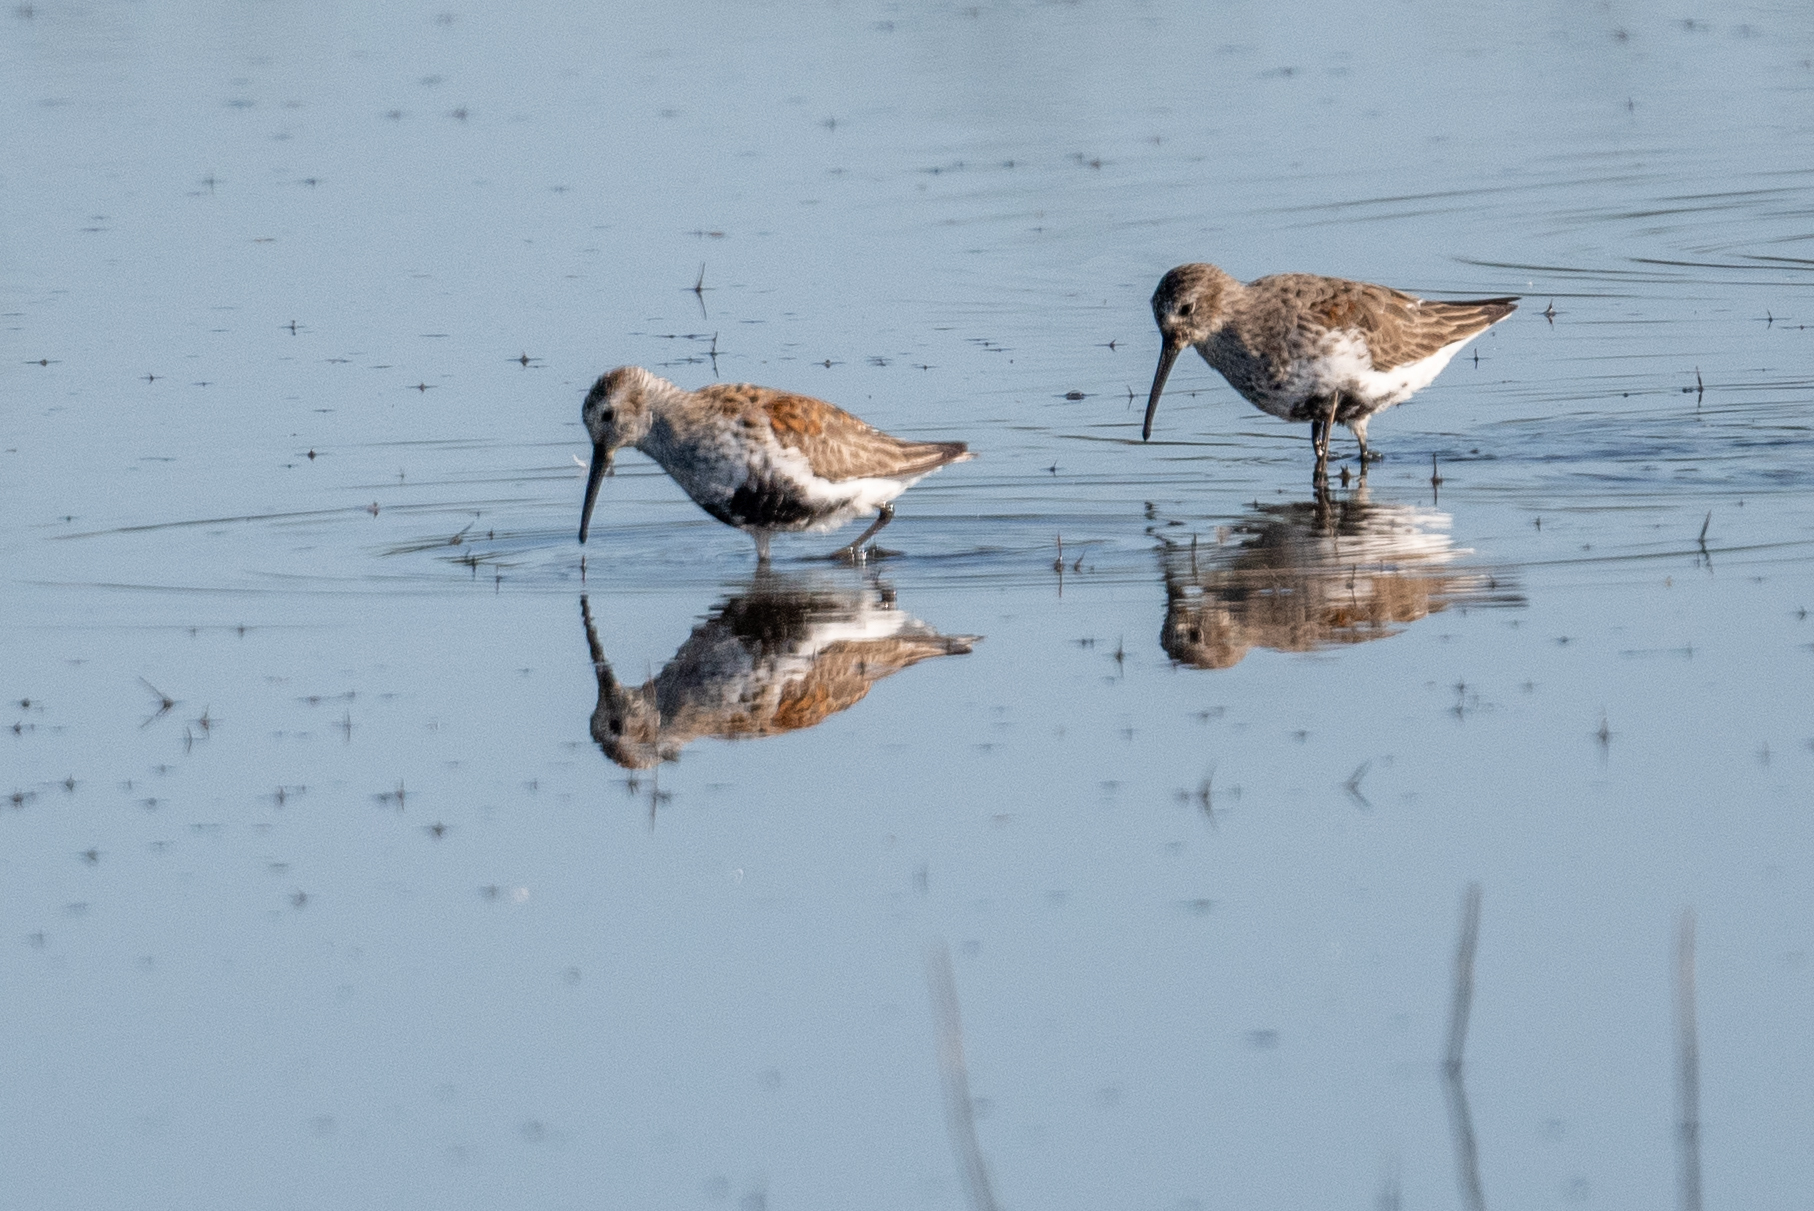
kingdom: Animalia
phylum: Chordata
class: Aves
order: Charadriiformes
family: Scolopacidae
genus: Calidris
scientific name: Calidris alpina
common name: Dunlin
